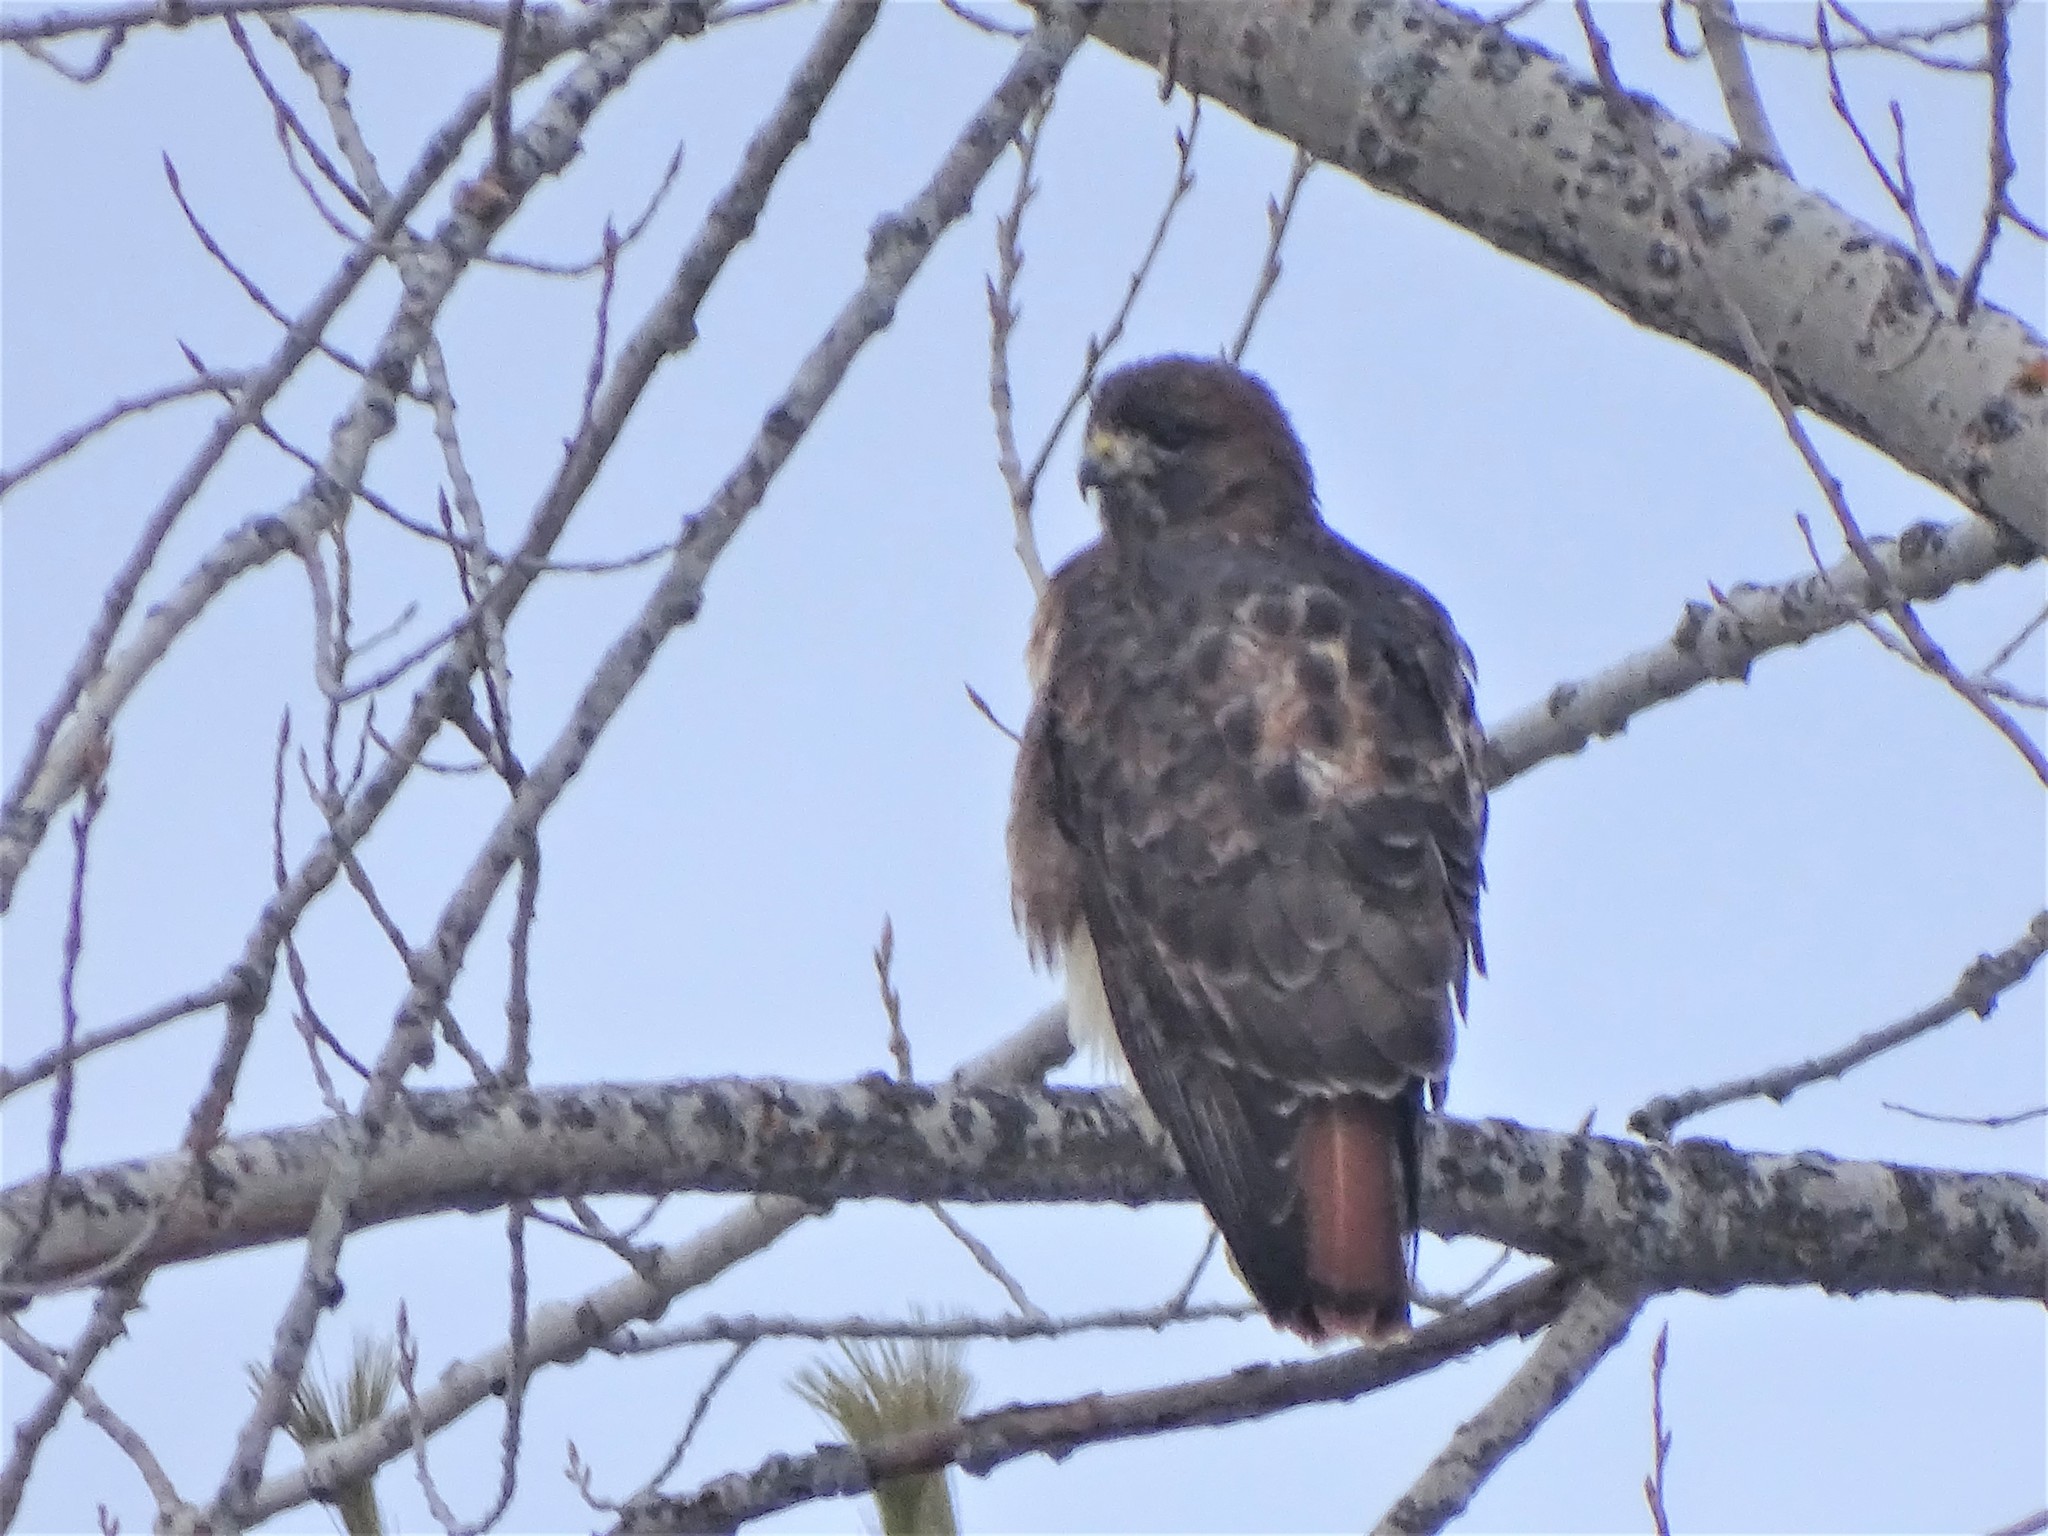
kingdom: Animalia
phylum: Chordata
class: Aves
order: Accipitriformes
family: Accipitridae
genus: Buteo
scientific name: Buteo jamaicensis
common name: Red-tailed hawk
